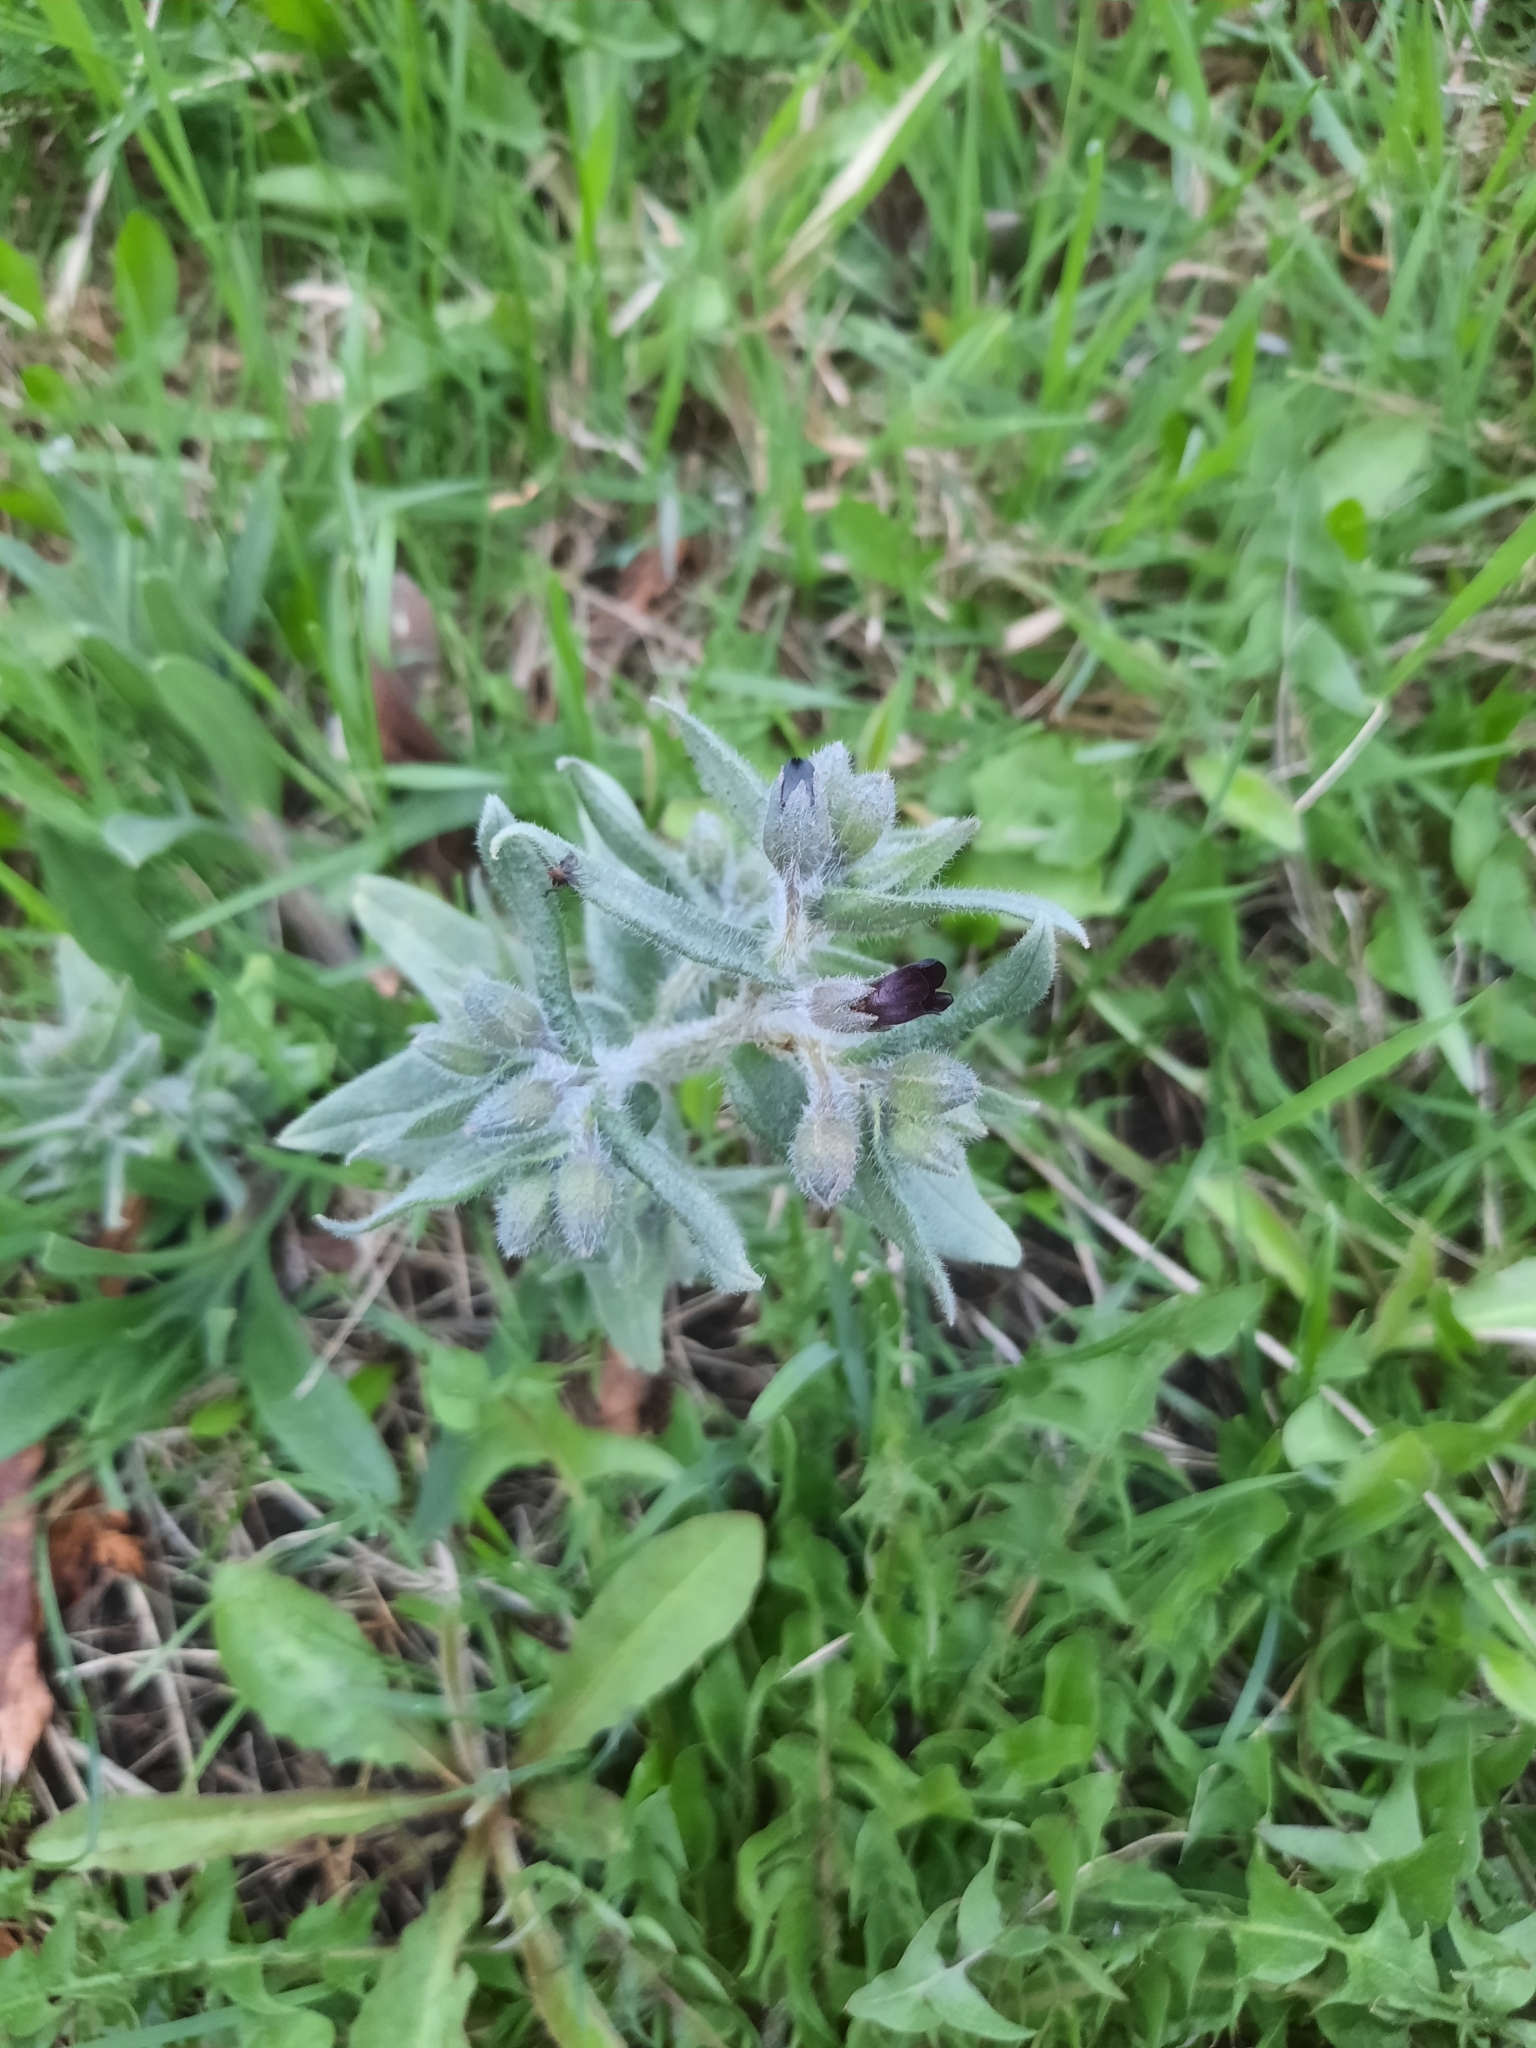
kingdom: Plantae
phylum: Tracheophyta
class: Magnoliopsida
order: Boraginales
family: Boraginaceae
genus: Nonea
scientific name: Nonea pulla
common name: Brown nonea
